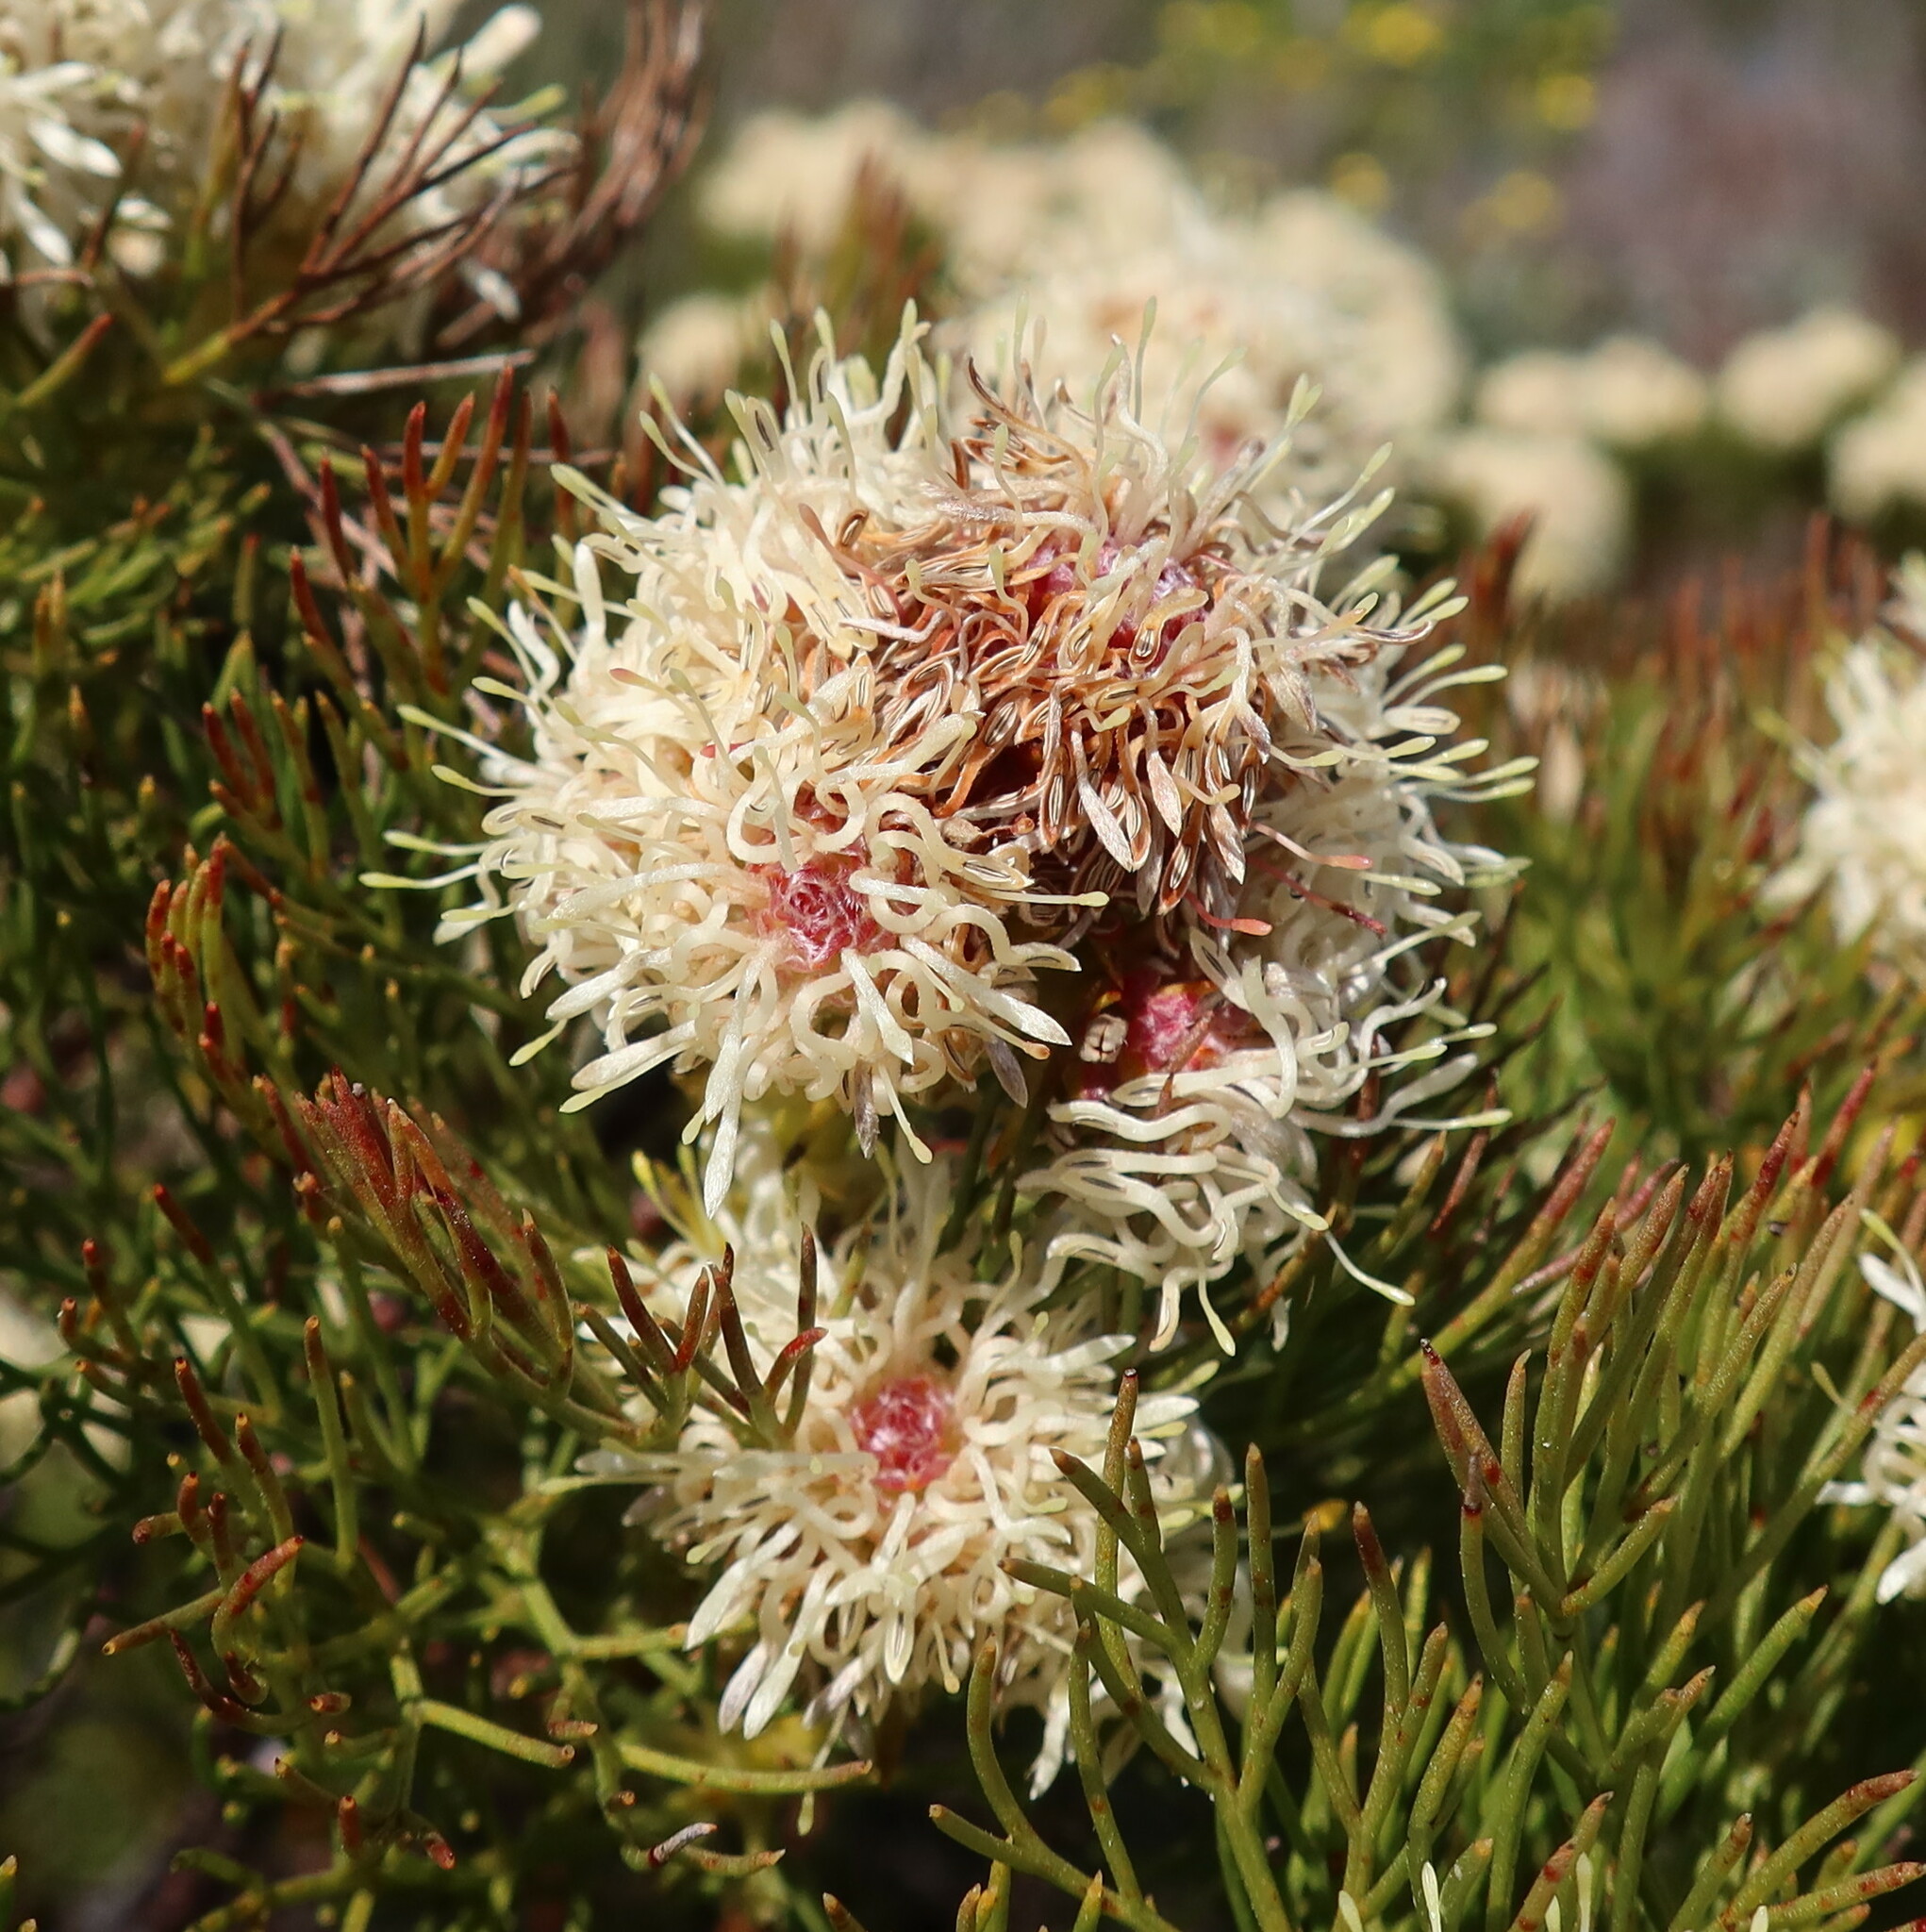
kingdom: Plantae
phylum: Tracheophyta
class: Magnoliopsida
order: Proteales
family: Proteaceae
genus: Serruria
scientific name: Serruria glomerata
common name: Cluster spiderhead
